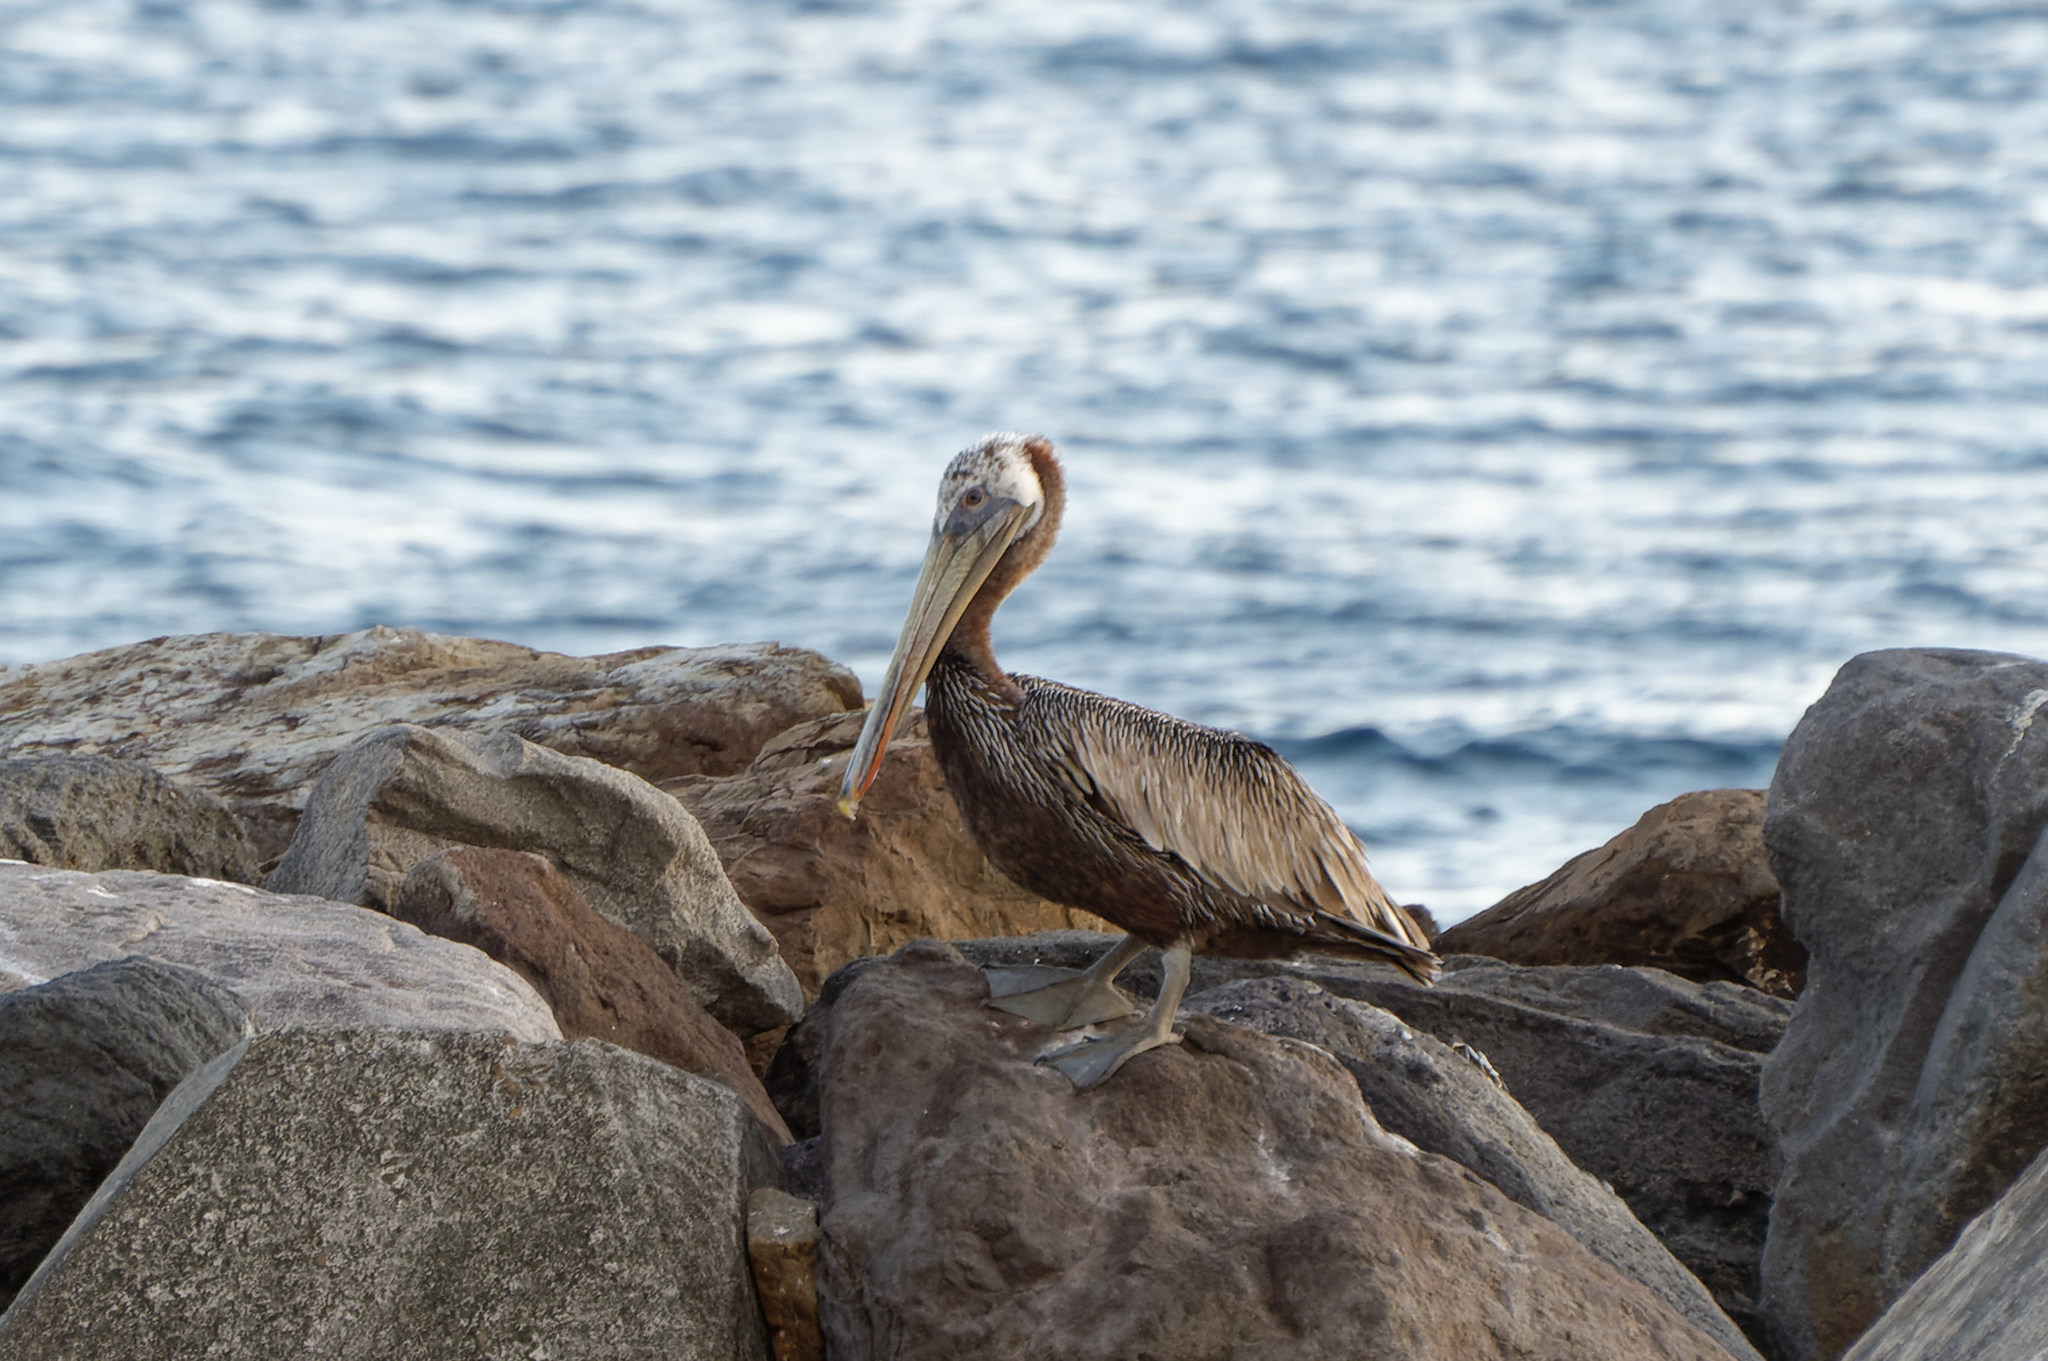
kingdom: Animalia
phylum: Chordata
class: Aves
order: Pelecaniformes
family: Pelecanidae
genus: Pelecanus
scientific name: Pelecanus occidentalis
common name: Brown pelican
